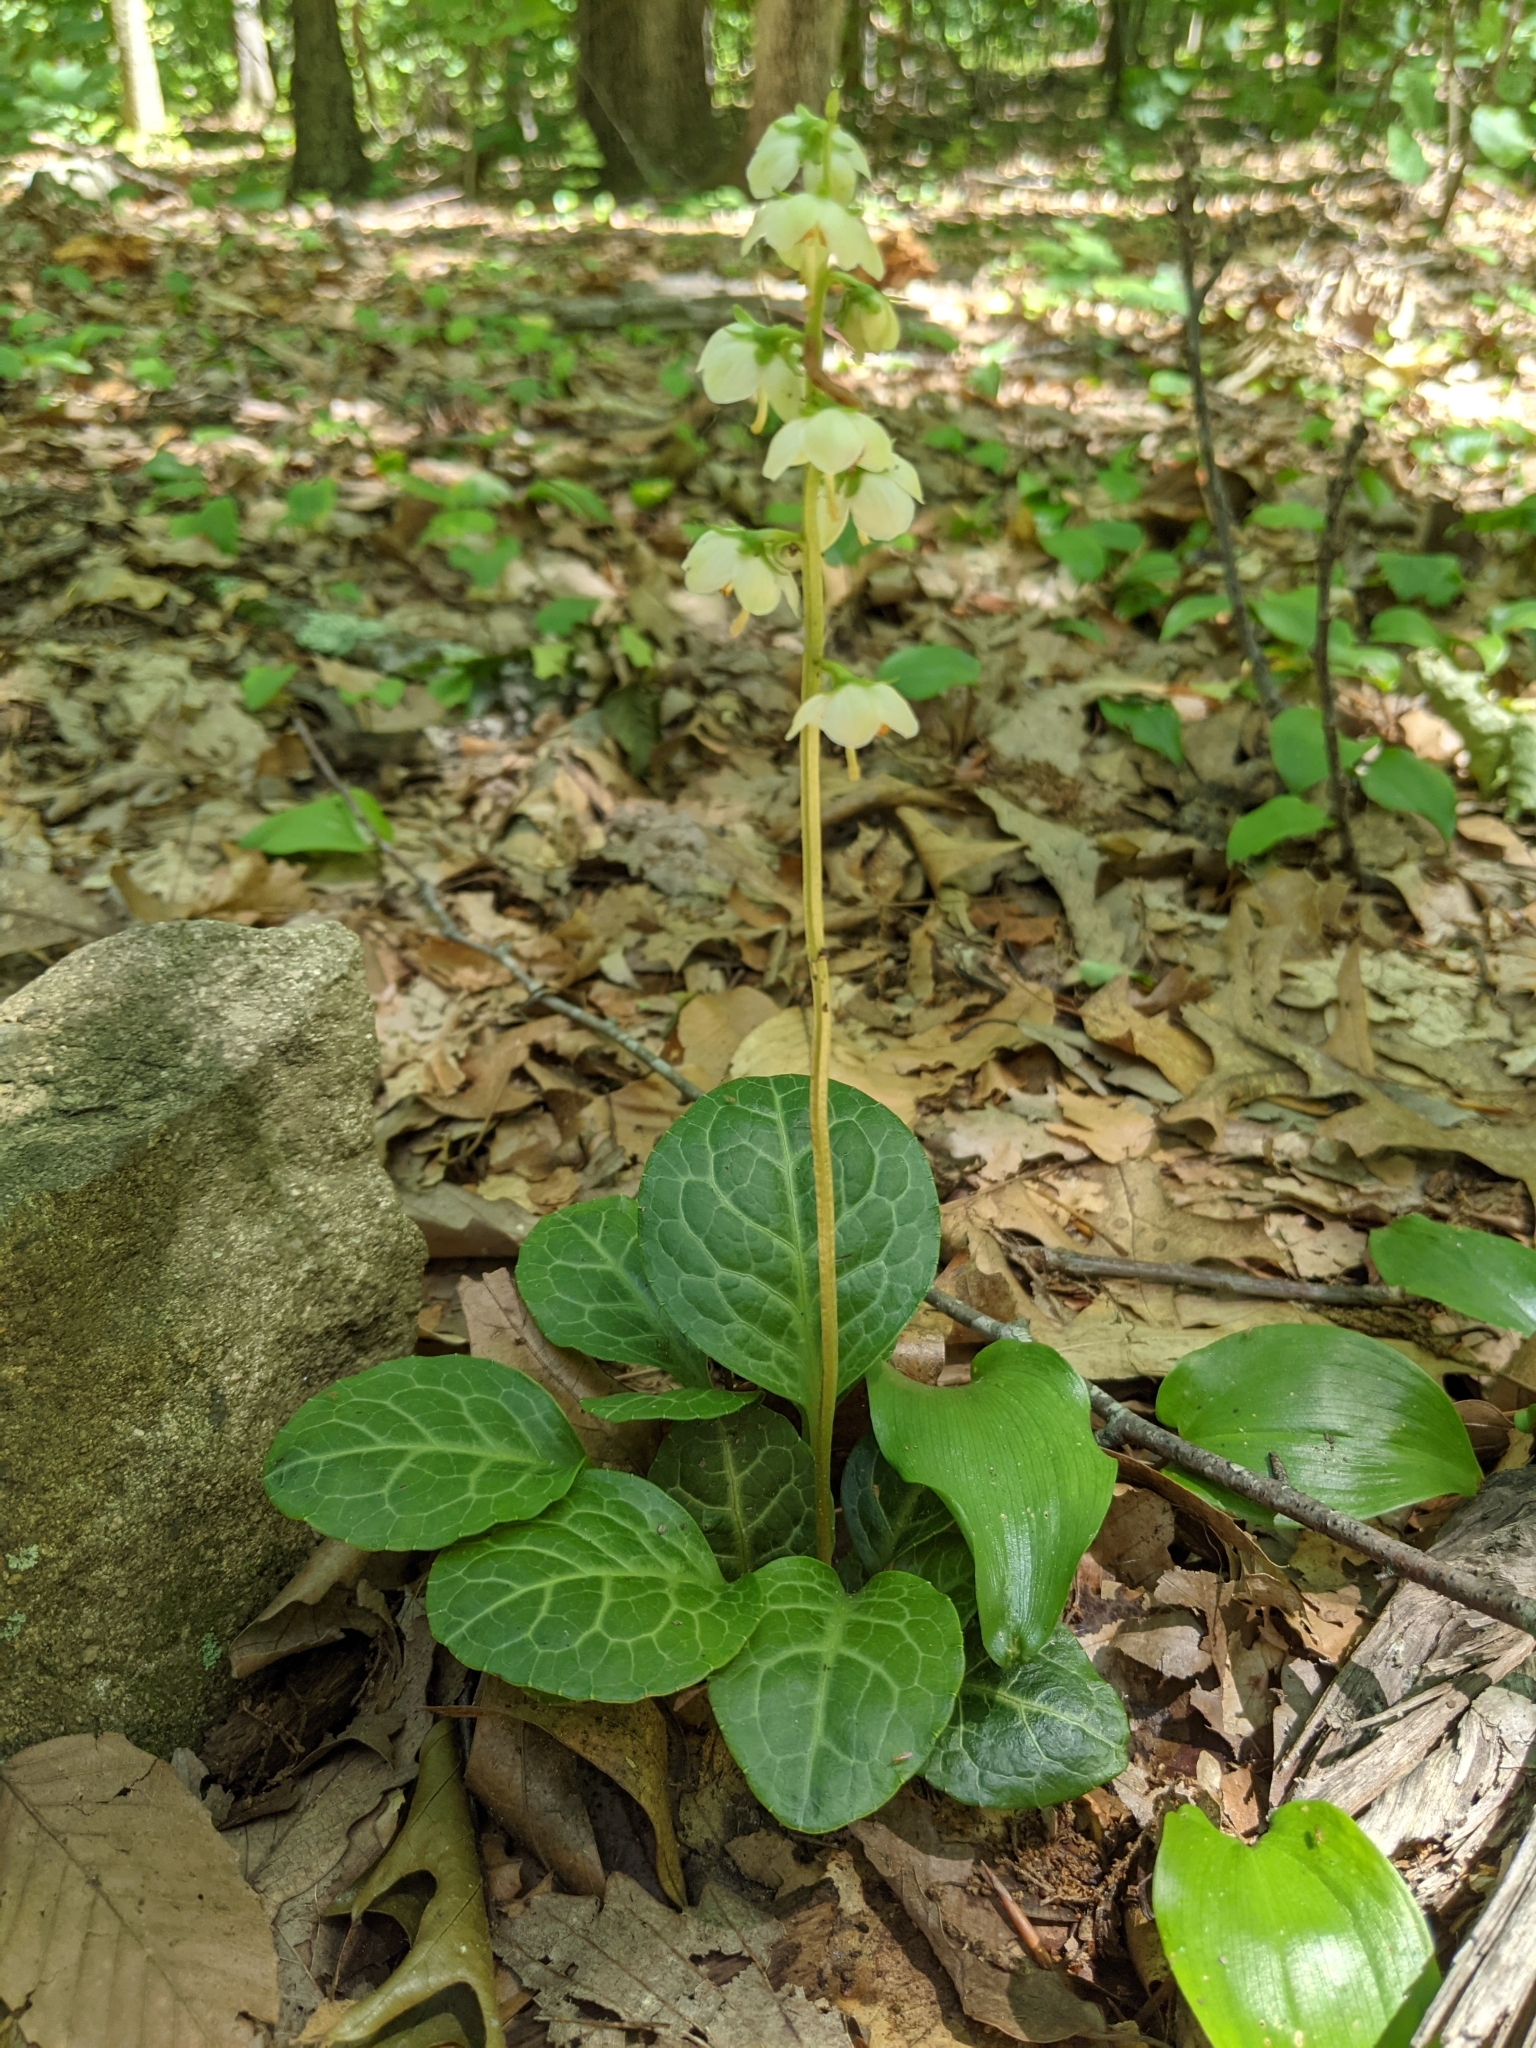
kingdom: Plantae
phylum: Tracheophyta
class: Magnoliopsida
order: Ericales
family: Ericaceae
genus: Pyrola
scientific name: Pyrola americana
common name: American wintergreen
